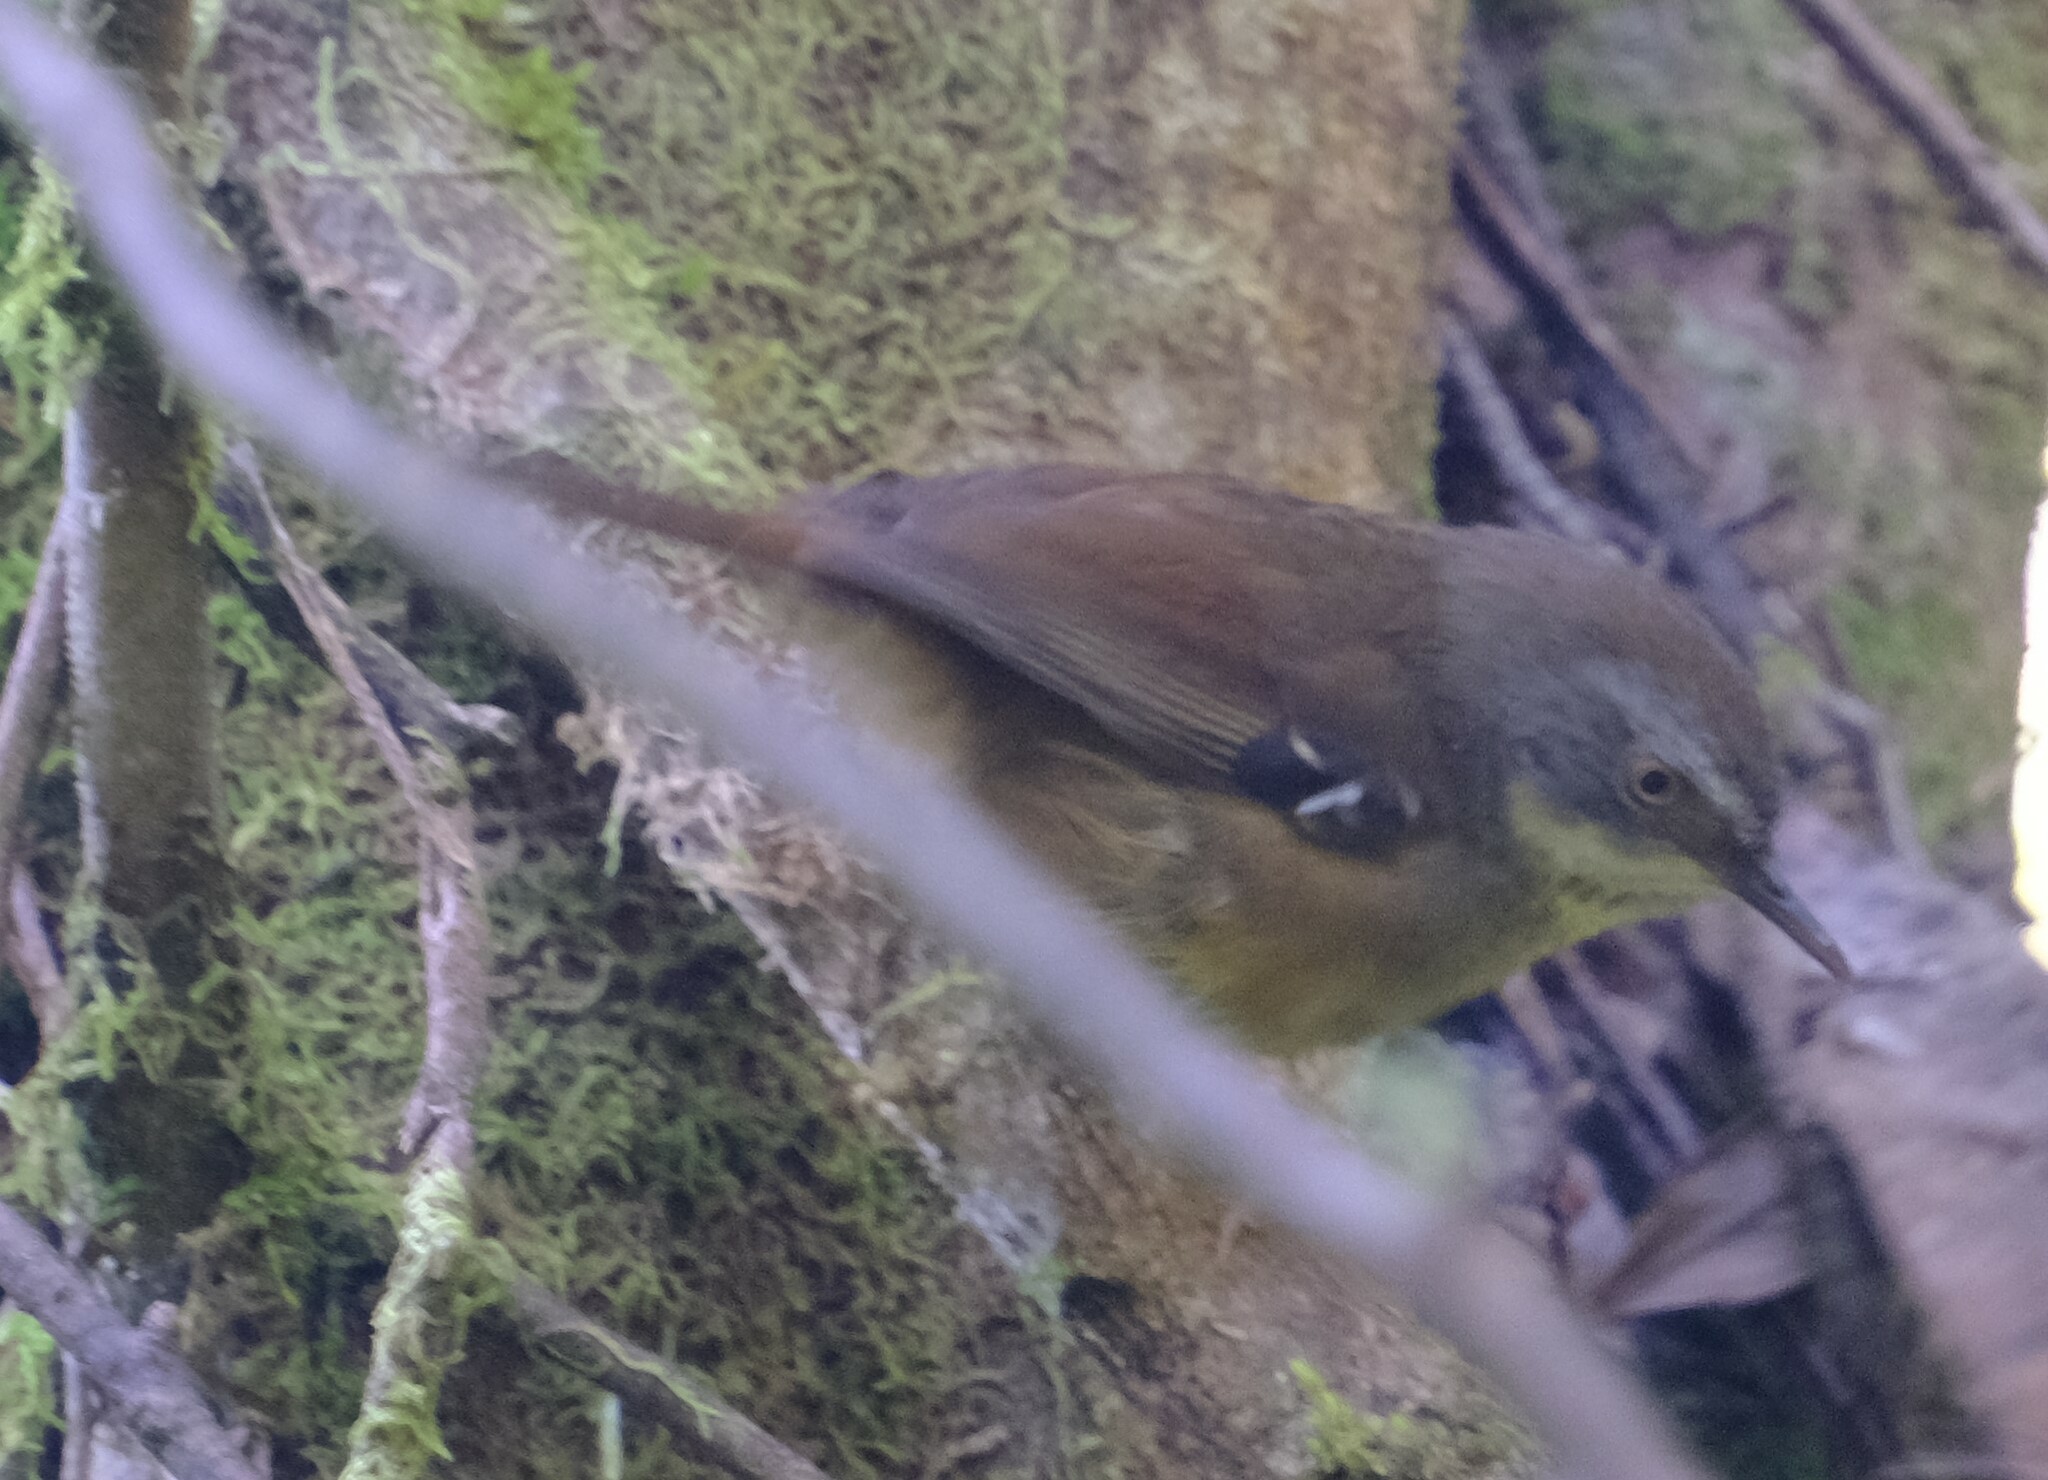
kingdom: Animalia
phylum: Chordata
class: Aves
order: Passeriformes
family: Acanthizidae
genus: Sericornis
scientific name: Sericornis frontalis
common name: White-browed scrubwren
